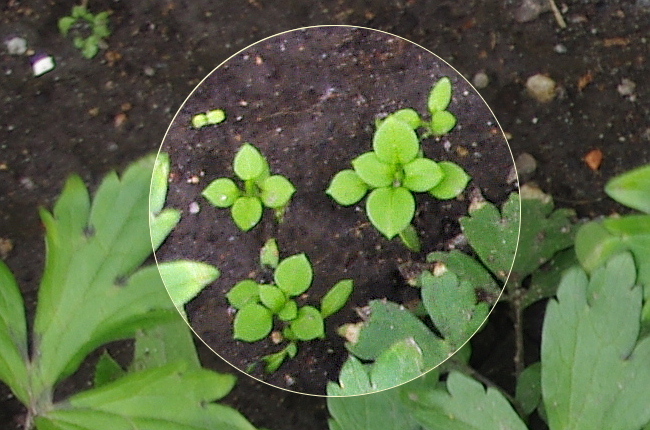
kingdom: Plantae
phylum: Tracheophyta
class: Magnoliopsida
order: Caryophyllales
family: Caryophyllaceae
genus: Stellaria
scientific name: Stellaria media
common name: Common chickweed
